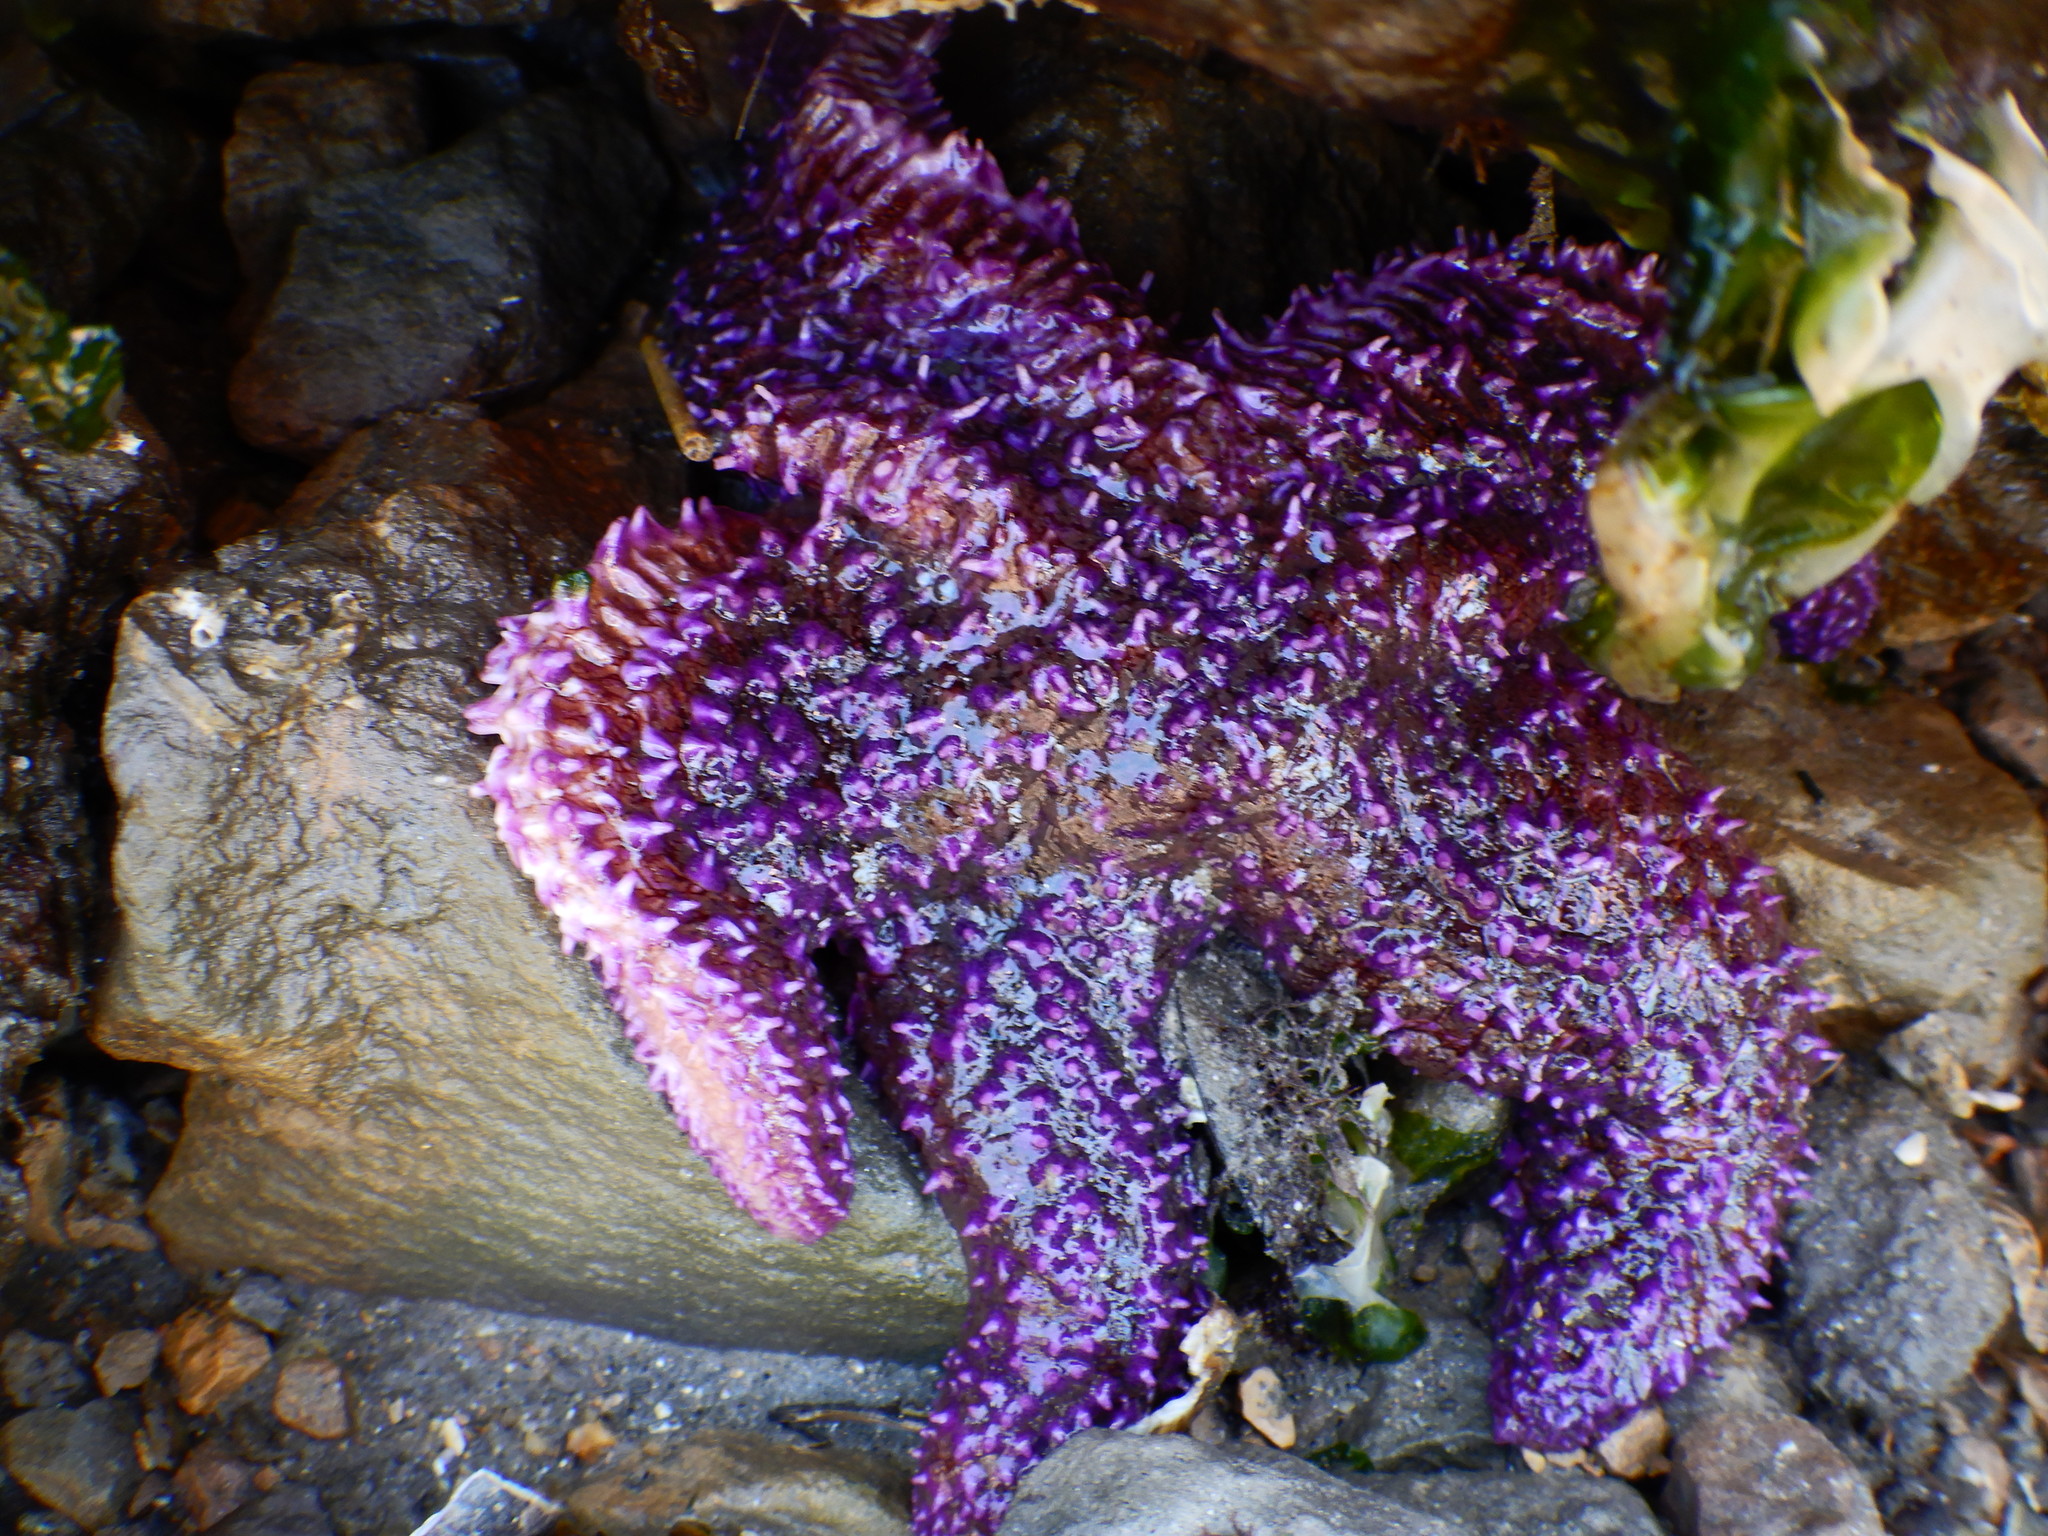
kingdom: Animalia
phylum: Echinodermata
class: Asteroidea
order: Forcipulatida
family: Asteriidae
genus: Asterias
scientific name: Asterias rubens
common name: Common starfish
